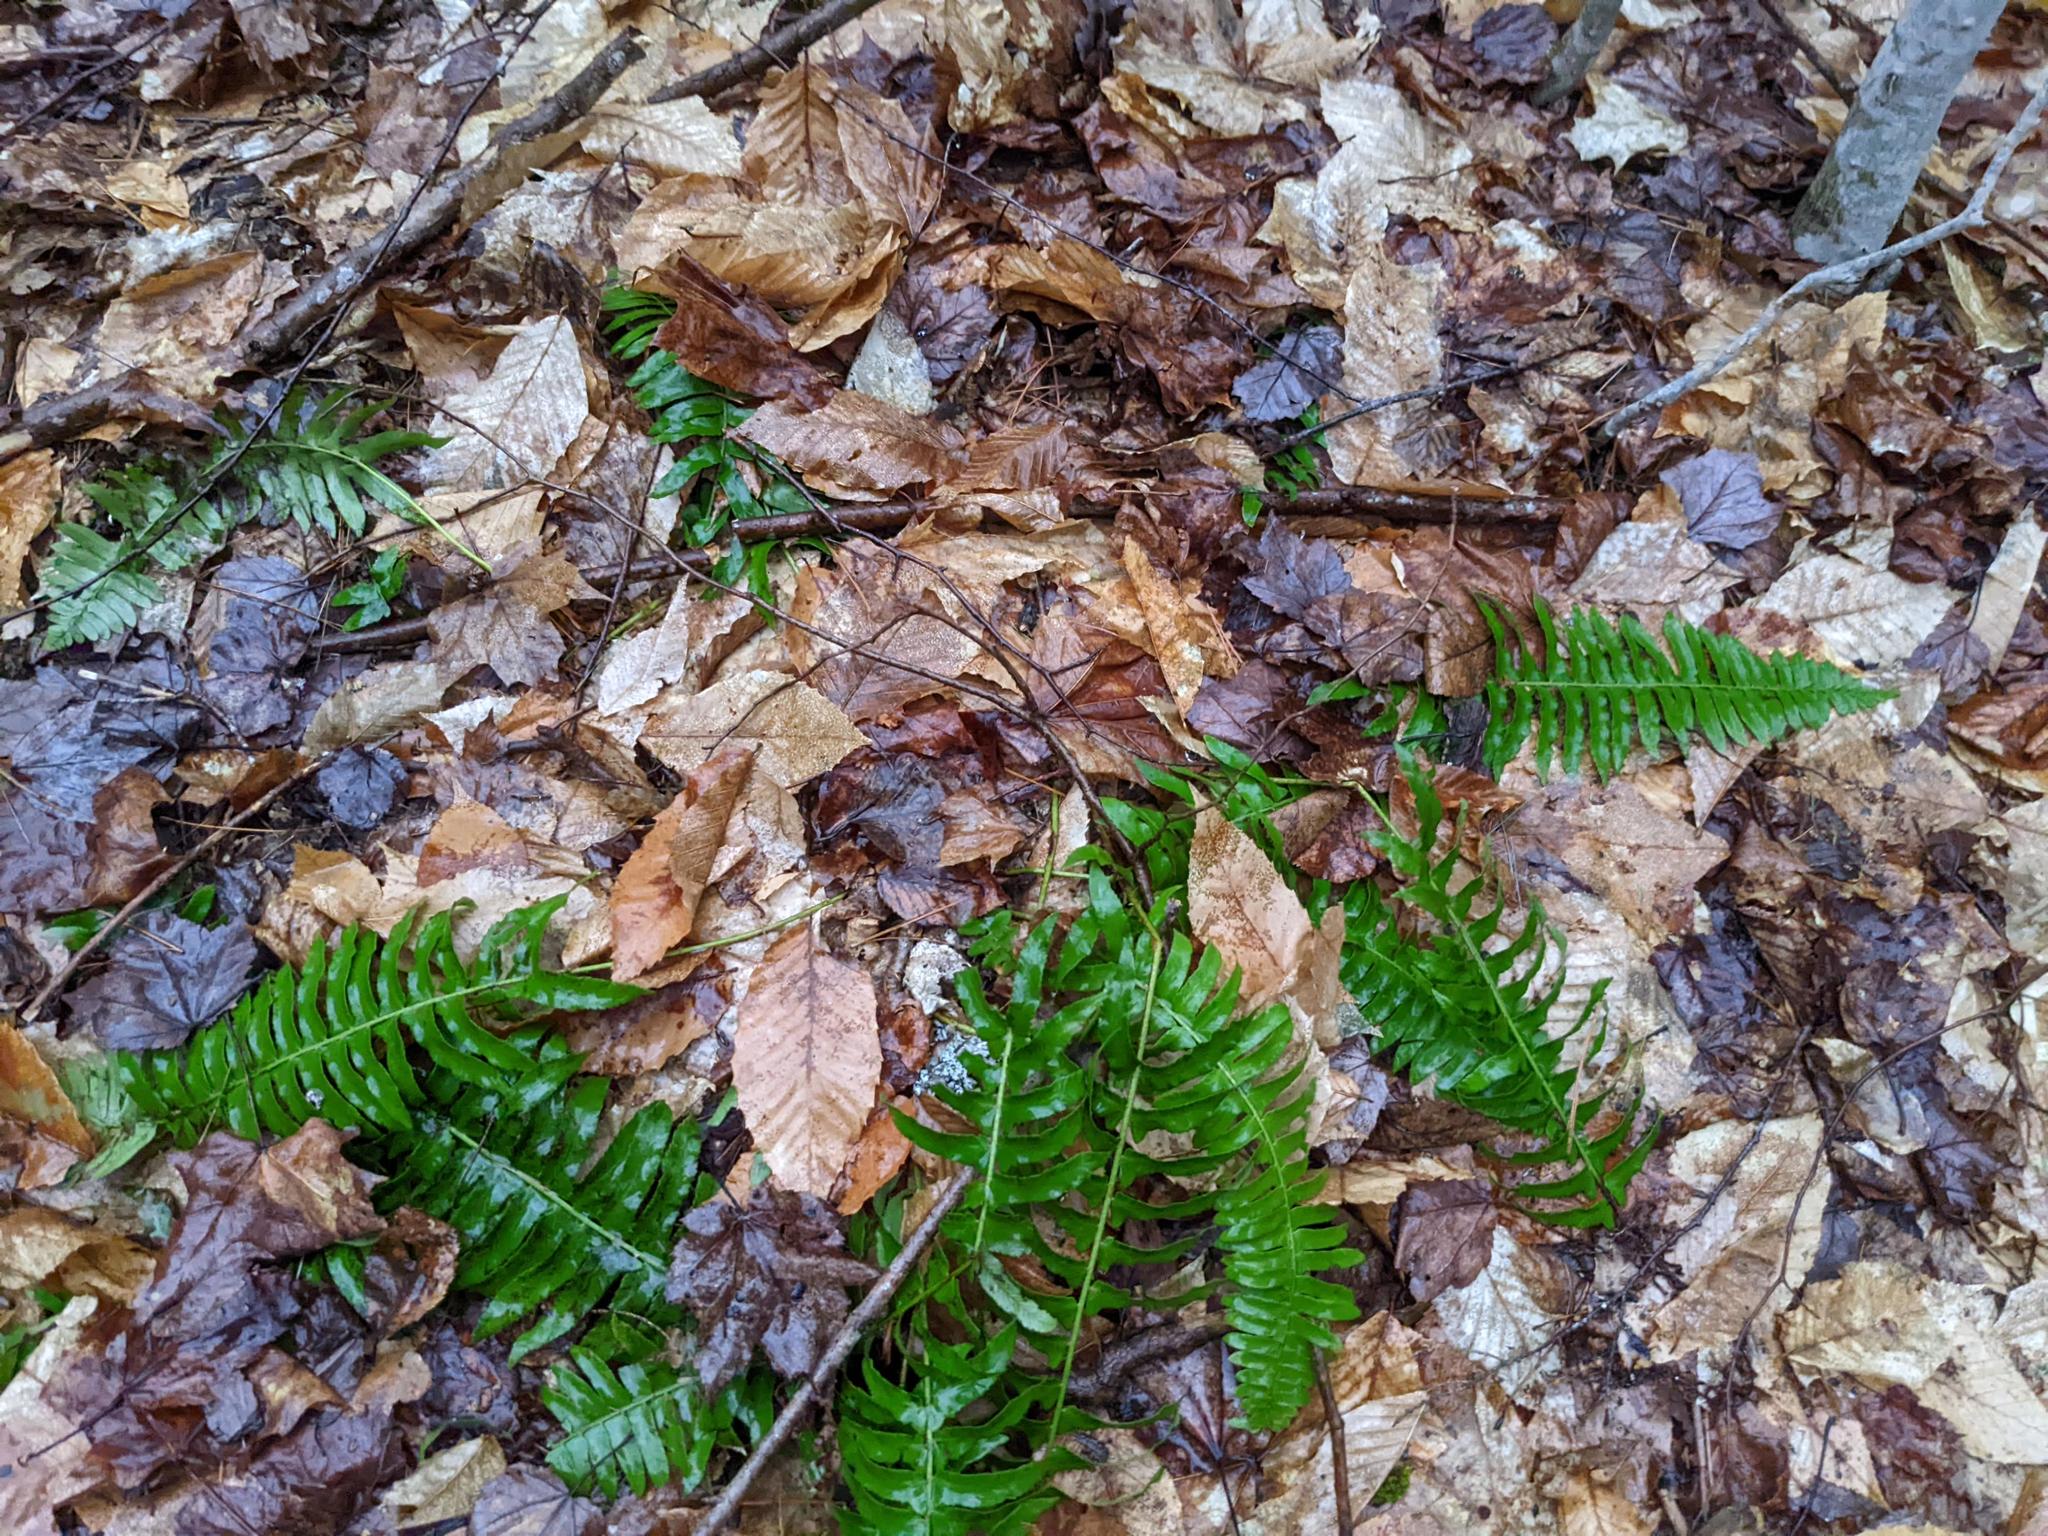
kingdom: Plantae
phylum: Tracheophyta
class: Polypodiopsida
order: Polypodiales
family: Dryopteridaceae
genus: Polystichum
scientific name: Polystichum acrostichoides
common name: Christmas fern
